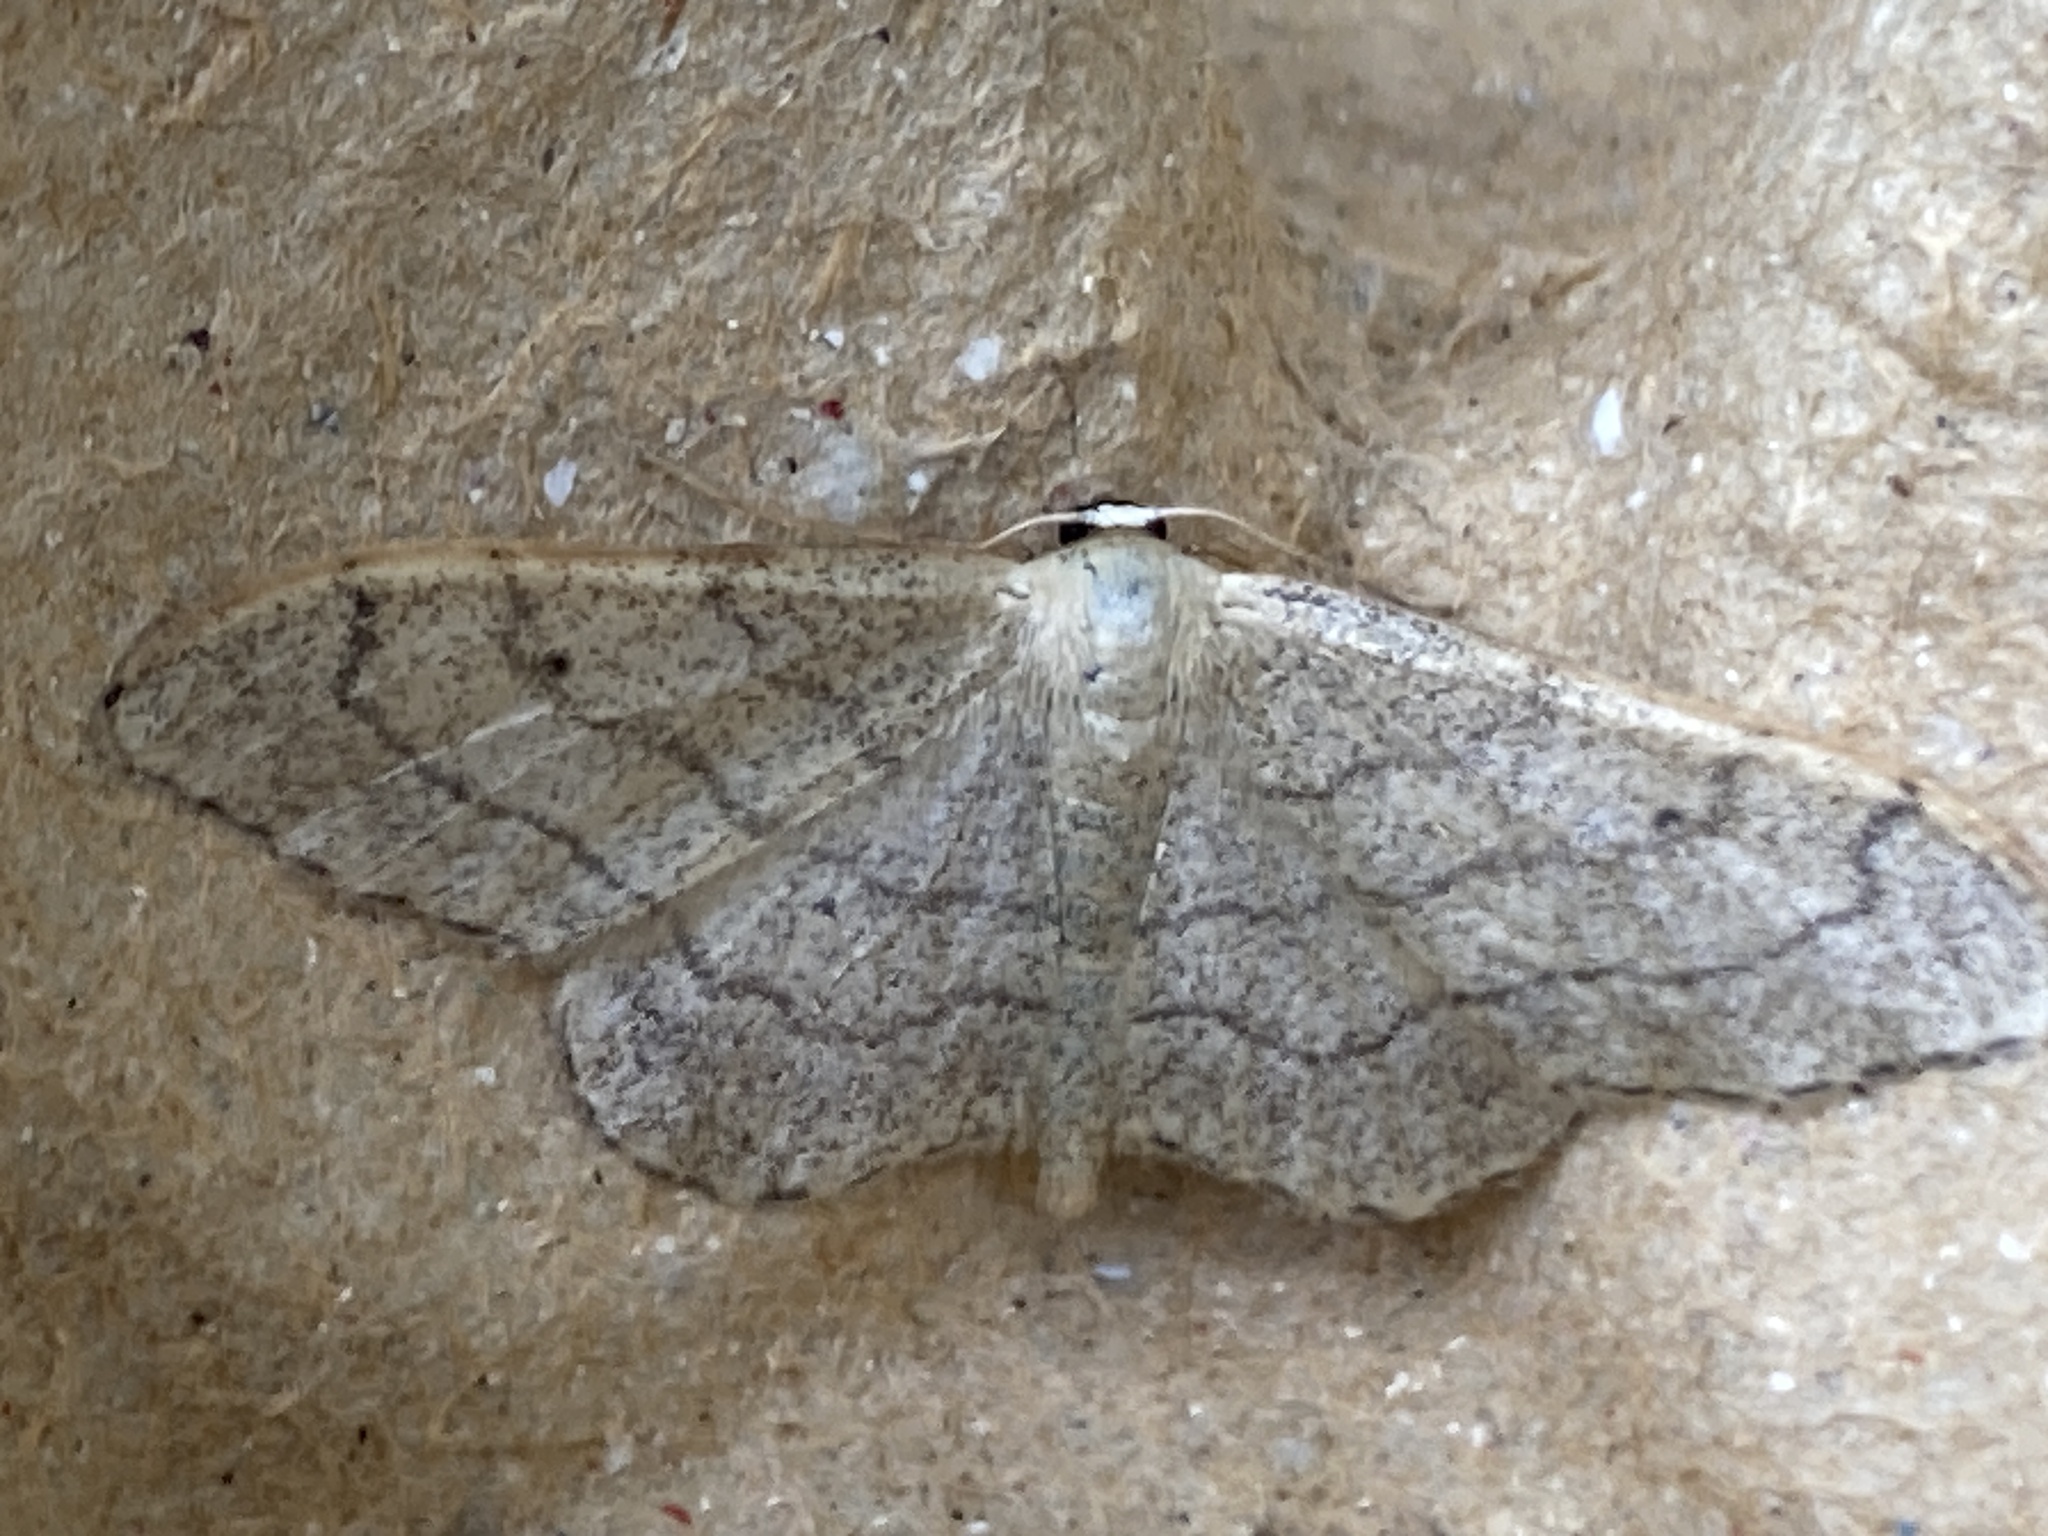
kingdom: Animalia
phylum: Arthropoda
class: Insecta
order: Lepidoptera
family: Geometridae
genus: Idaea
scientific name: Idaea aversata
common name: Riband wave
